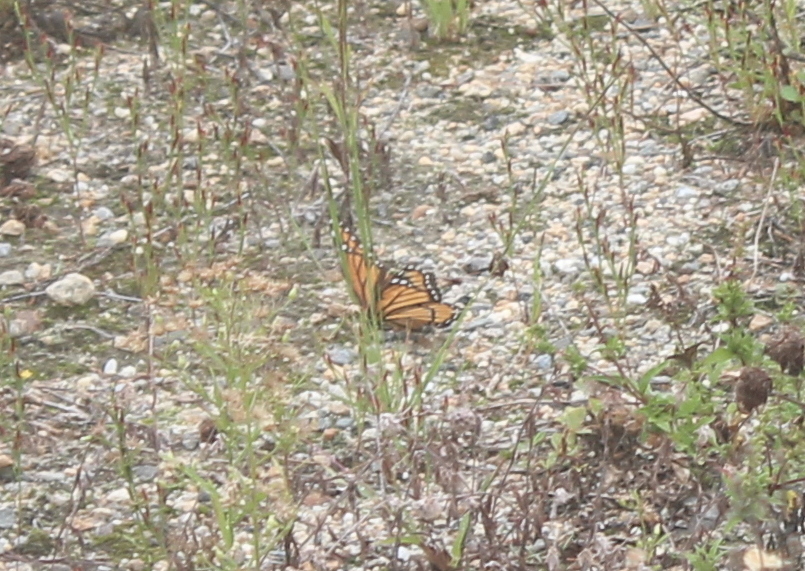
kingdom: Animalia
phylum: Arthropoda
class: Insecta
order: Lepidoptera
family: Nymphalidae
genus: Limenitis
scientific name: Limenitis archippus
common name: Viceroy
